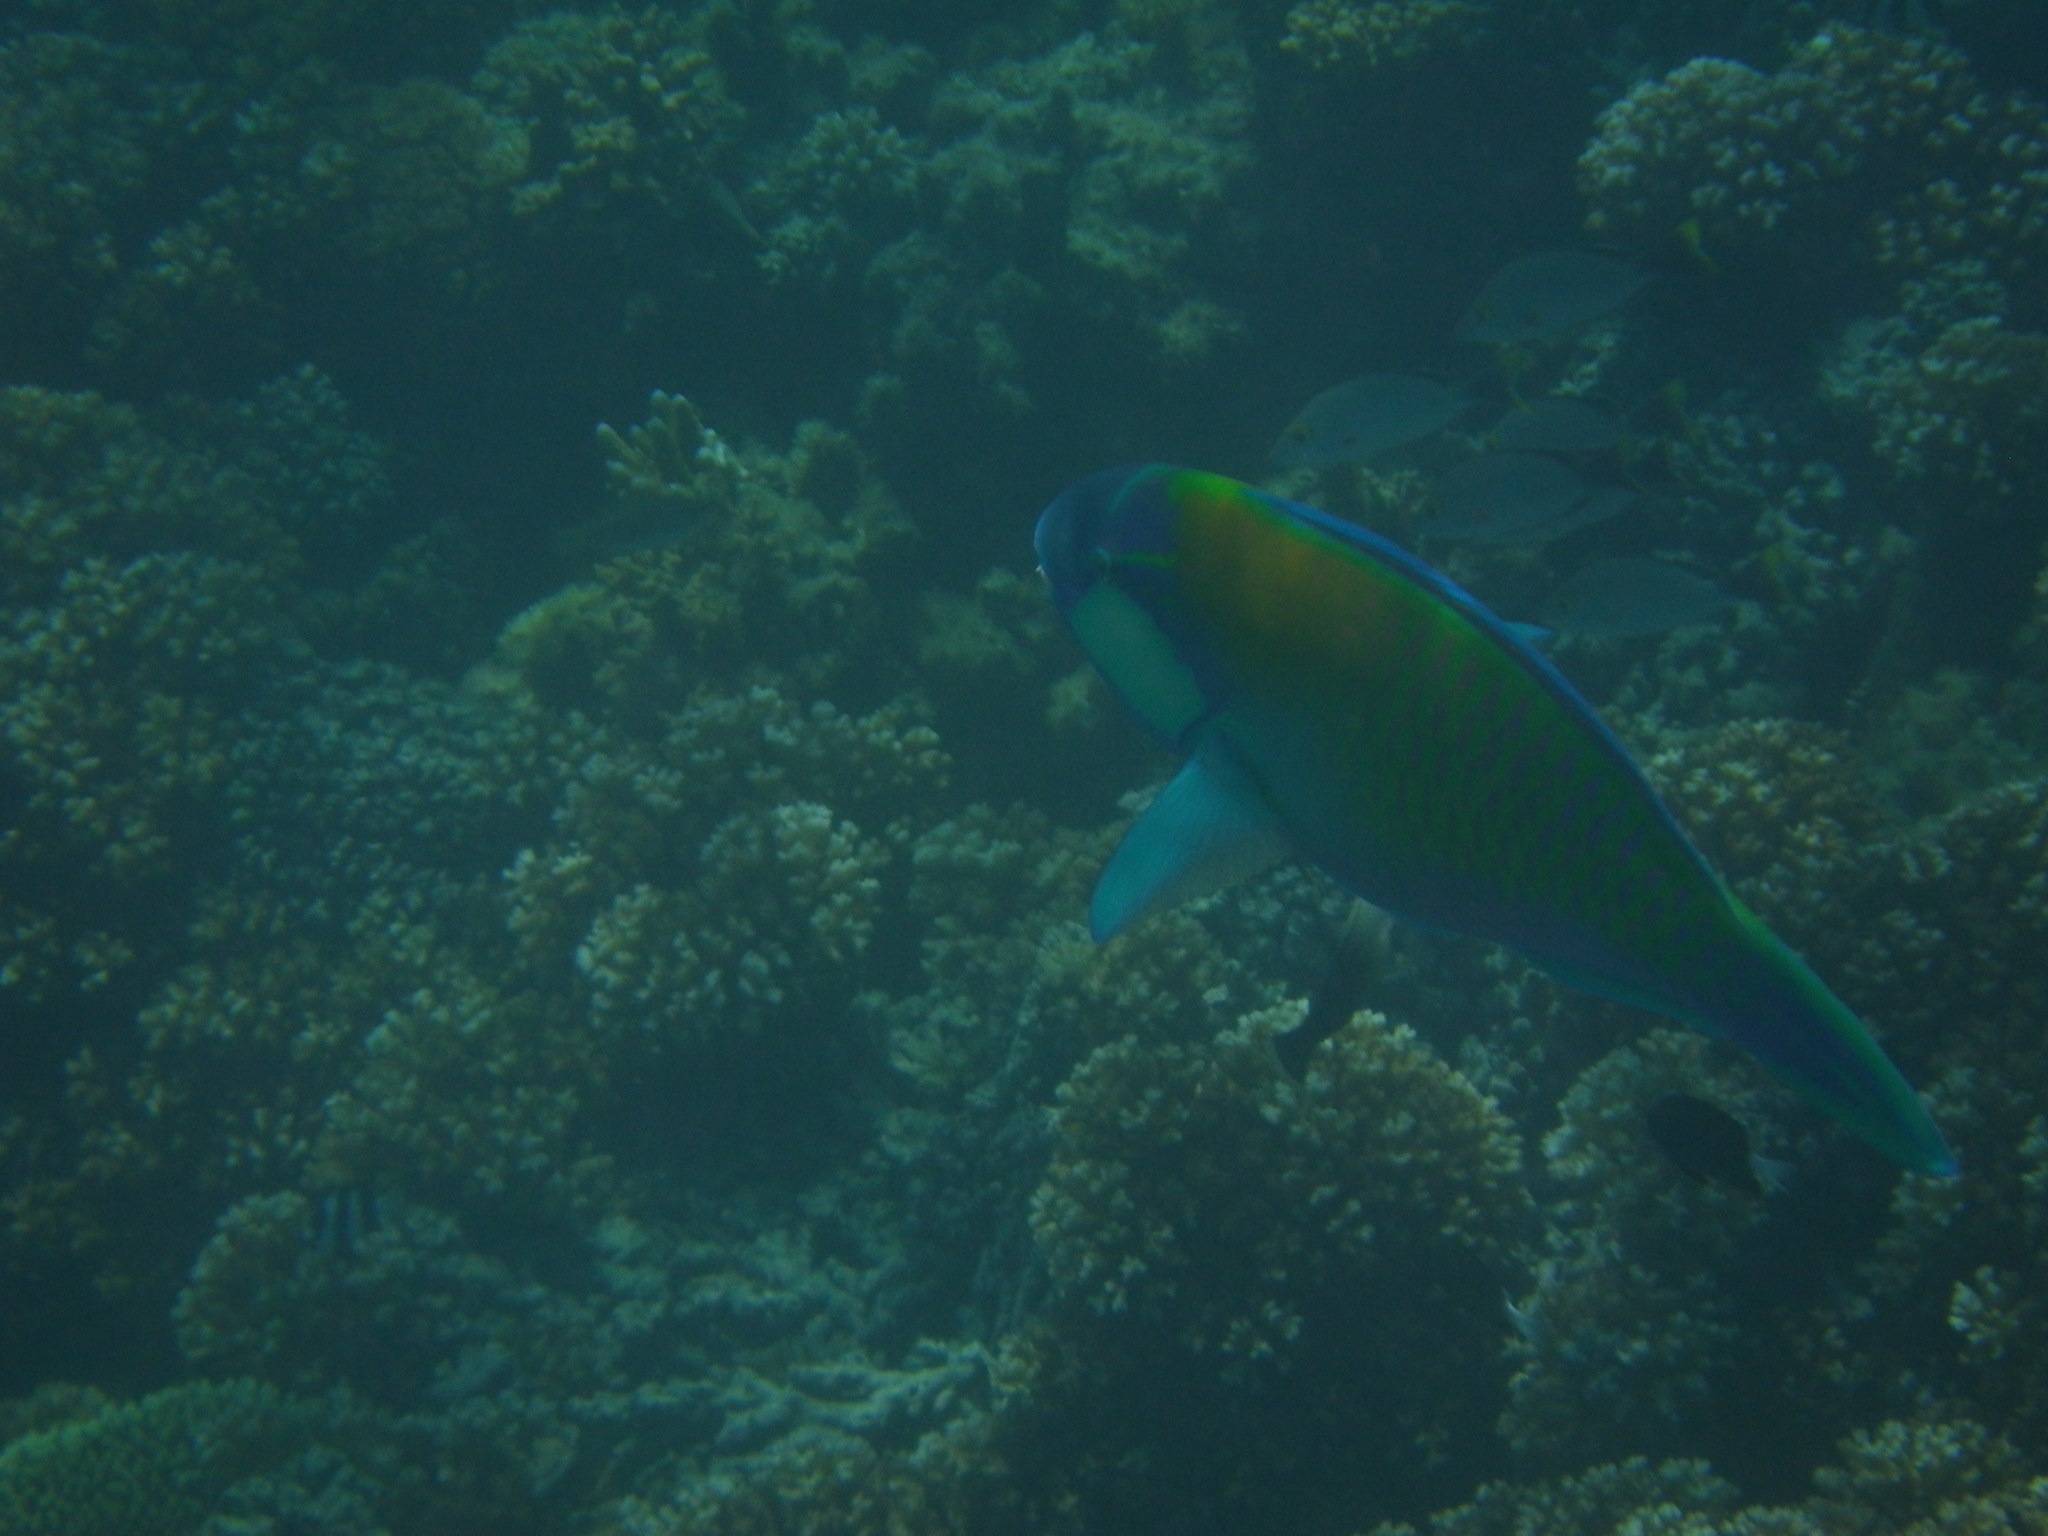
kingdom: Animalia
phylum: Chordata
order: Perciformes
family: Scaridae
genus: Chlorurus
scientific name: Chlorurus bleekeri
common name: Bleeker's parrotfish
